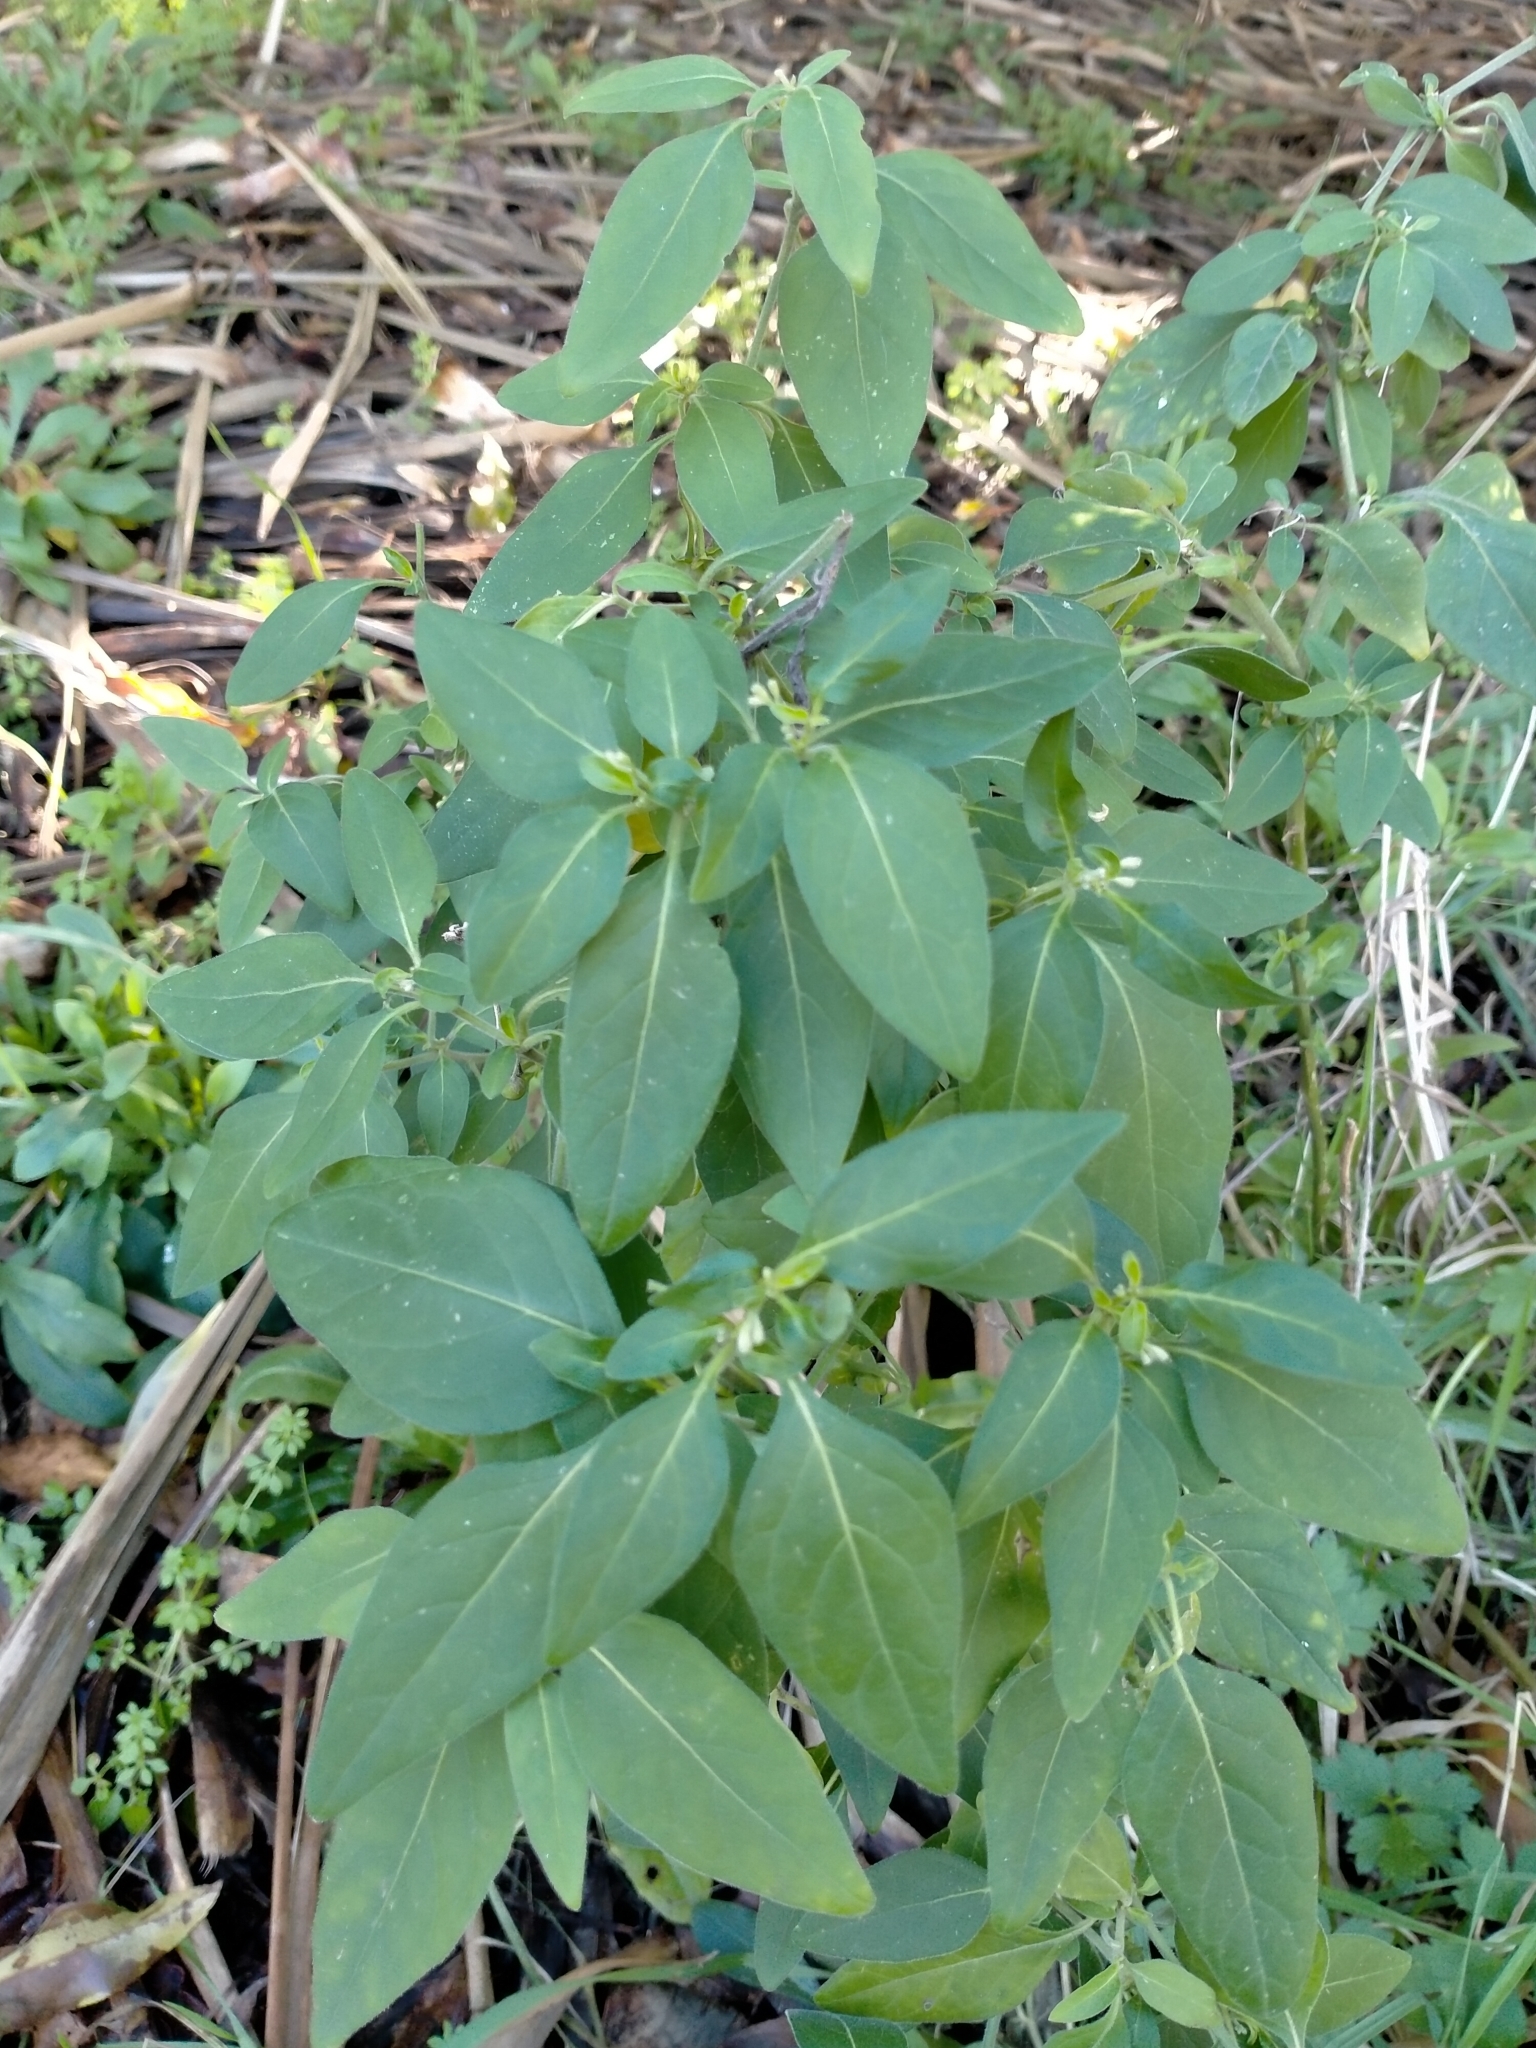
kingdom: Plantae
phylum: Tracheophyta
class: Magnoliopsida
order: Solanales
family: Solanaceae
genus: Solanum
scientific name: Solanum chenopodioides
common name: Tall nightshade
